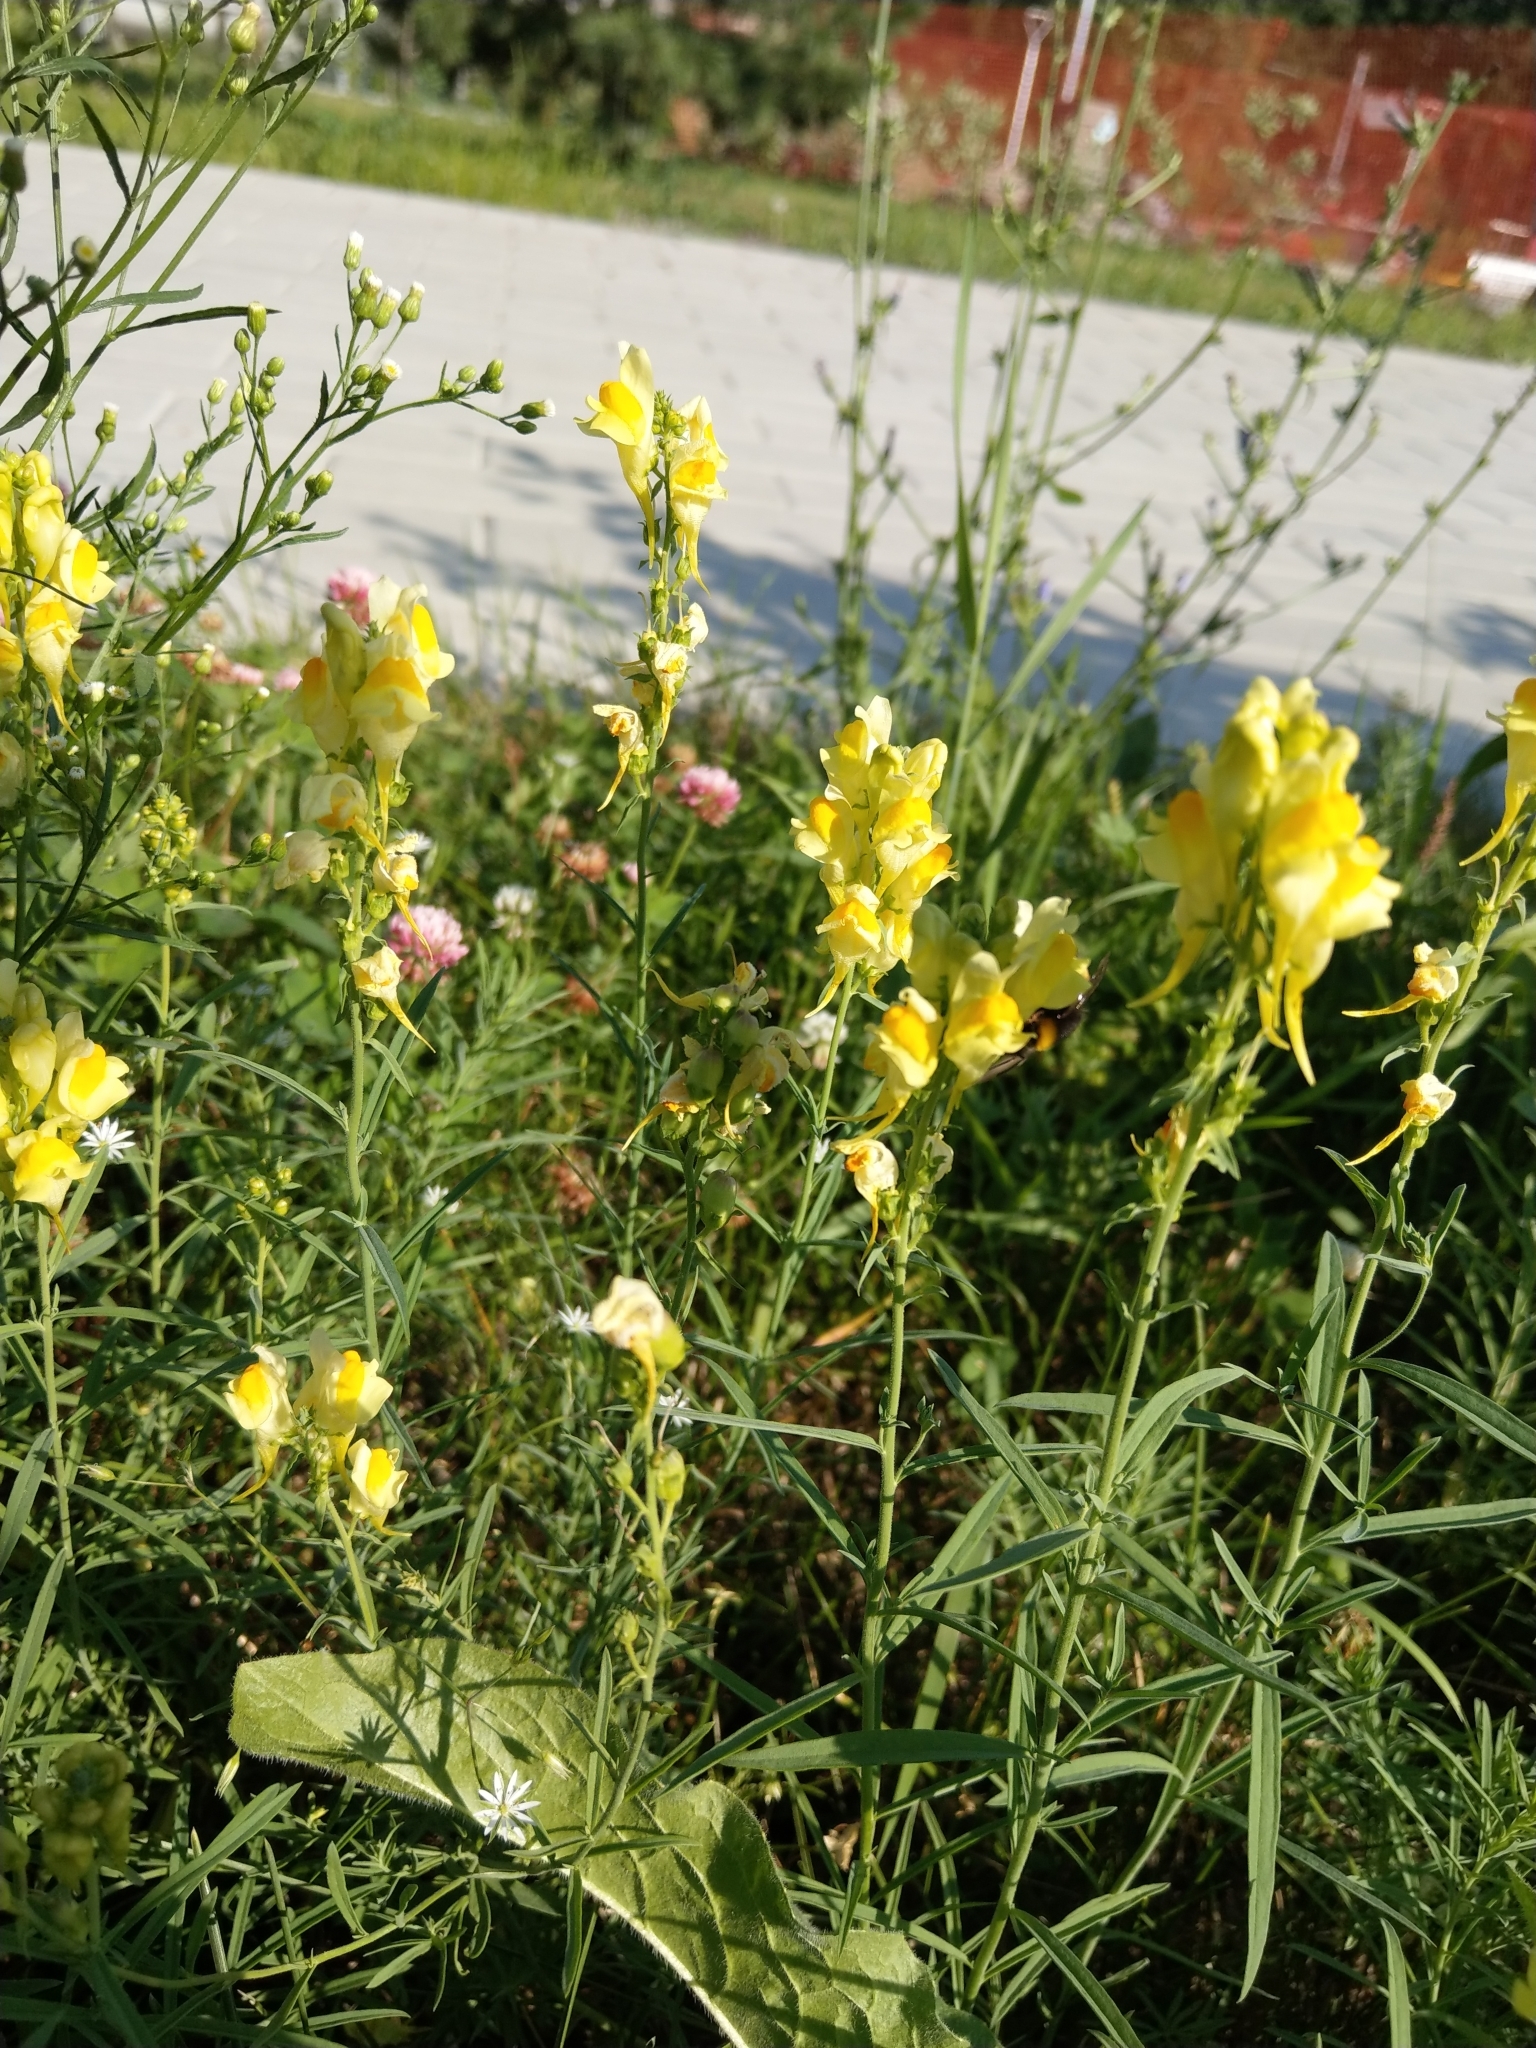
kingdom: Plantae
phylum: Tracheophyta
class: Magnoliopsida
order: Lamiales
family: Plantaginaceae
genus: Linaria
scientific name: Linaria vulgaris
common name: Butter and eggs
